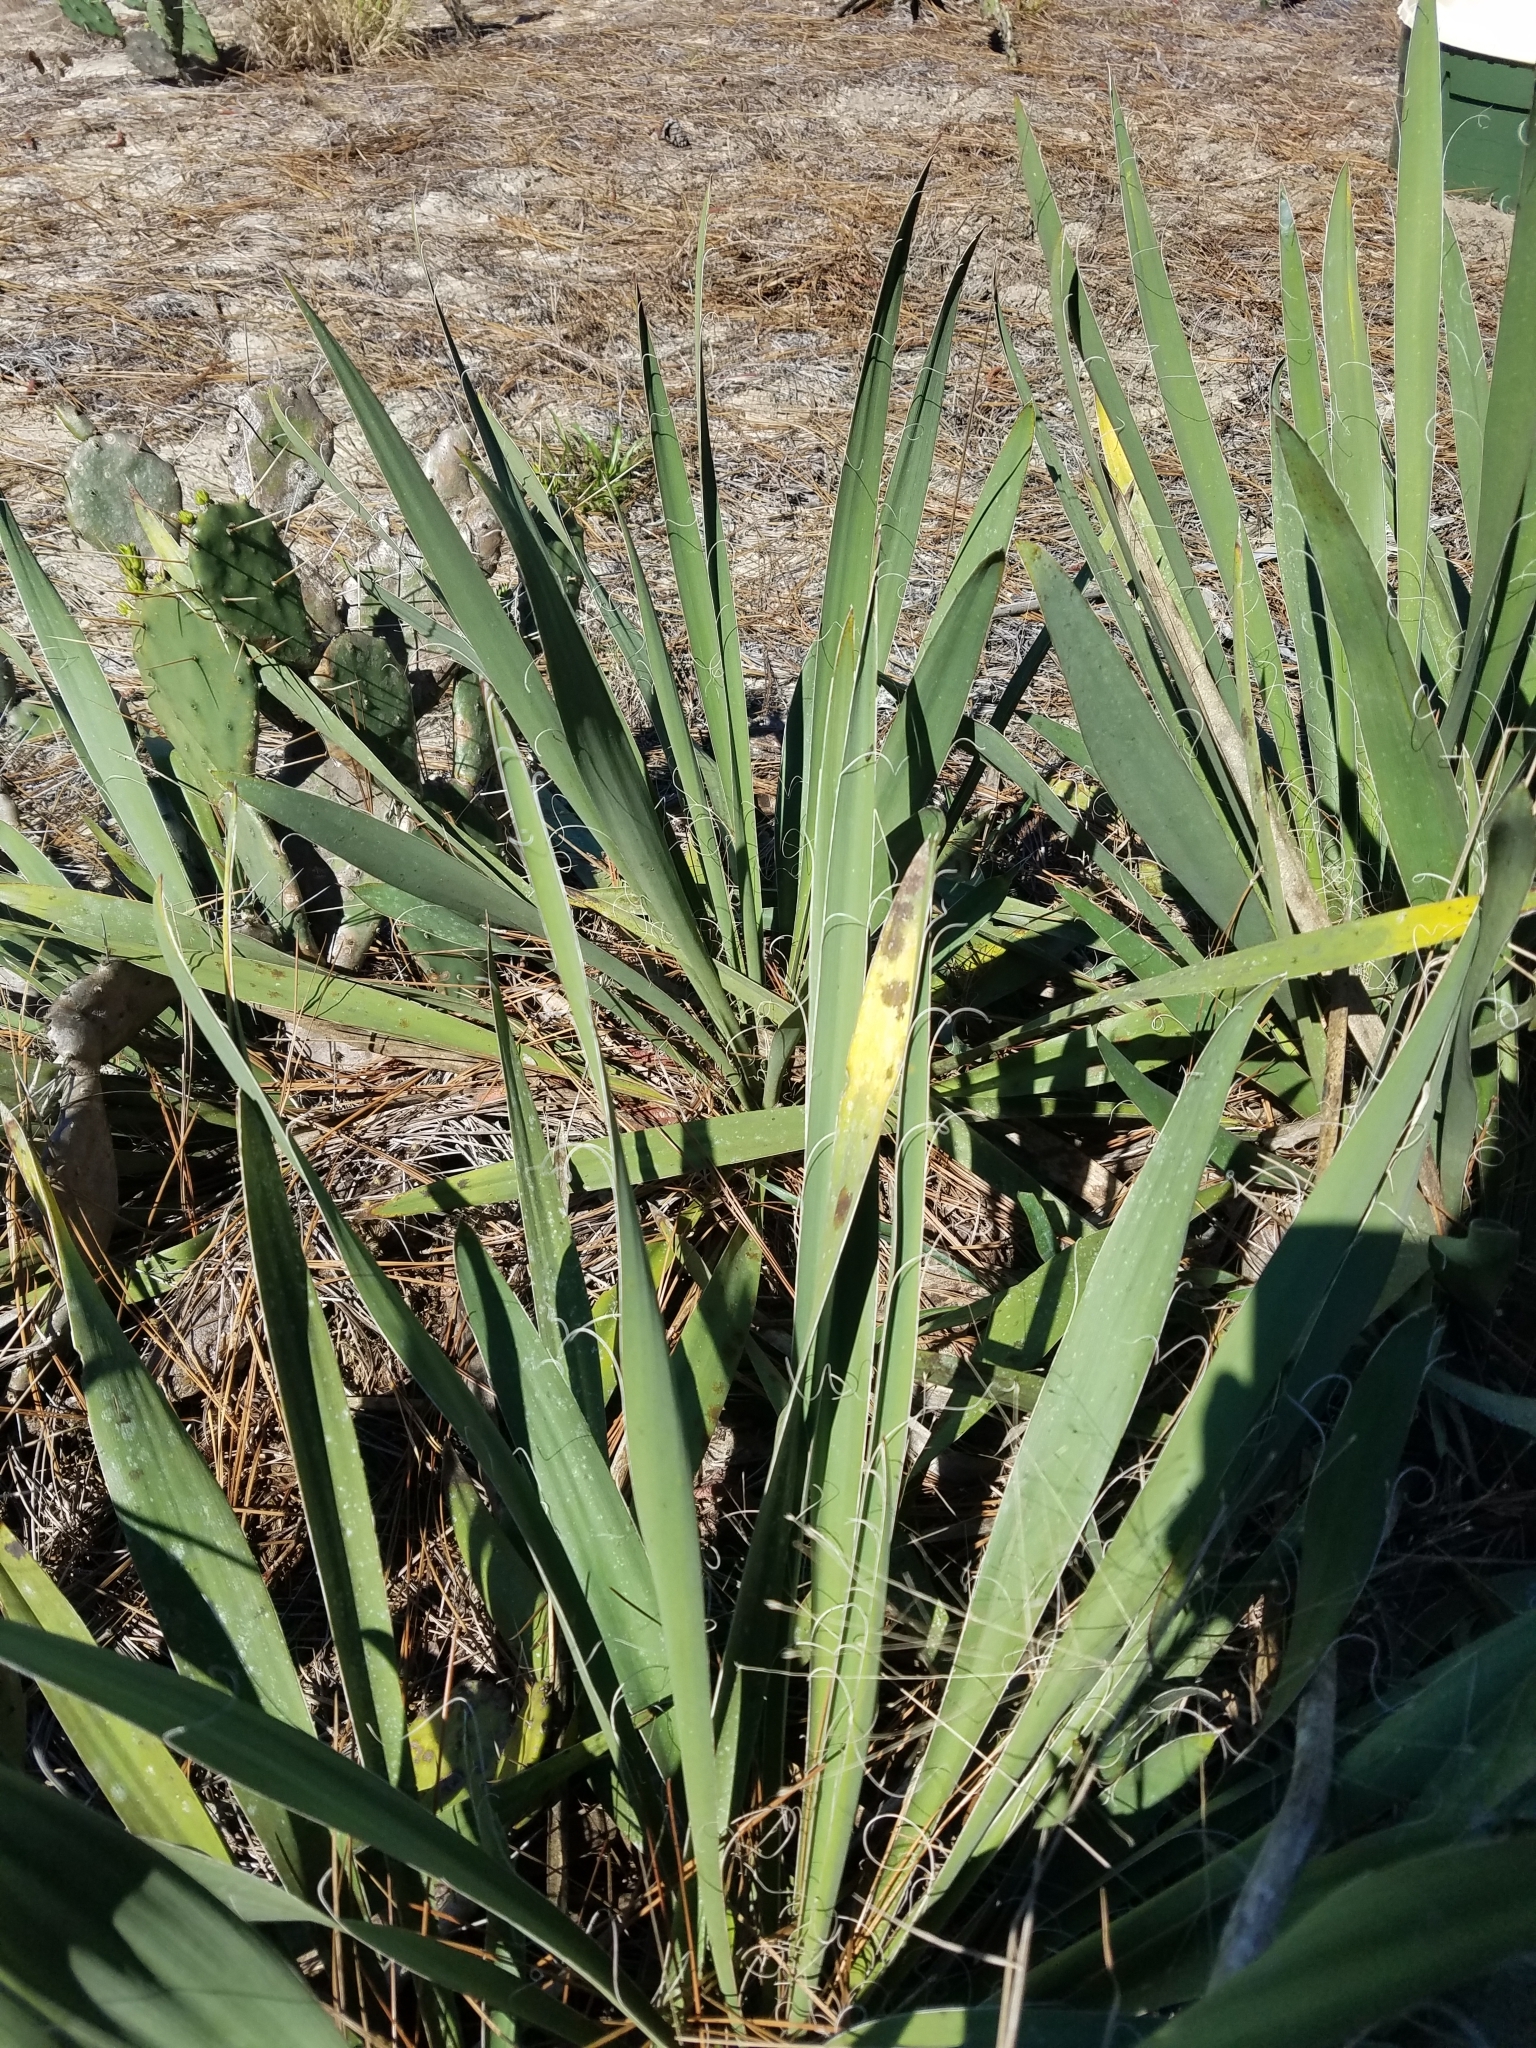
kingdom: Plantae
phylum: Tracheophyta
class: Liliopsida
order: Asparagales
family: Asparagaceae
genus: Yucca
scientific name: Yucca filamentosa
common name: Adam's-needle
